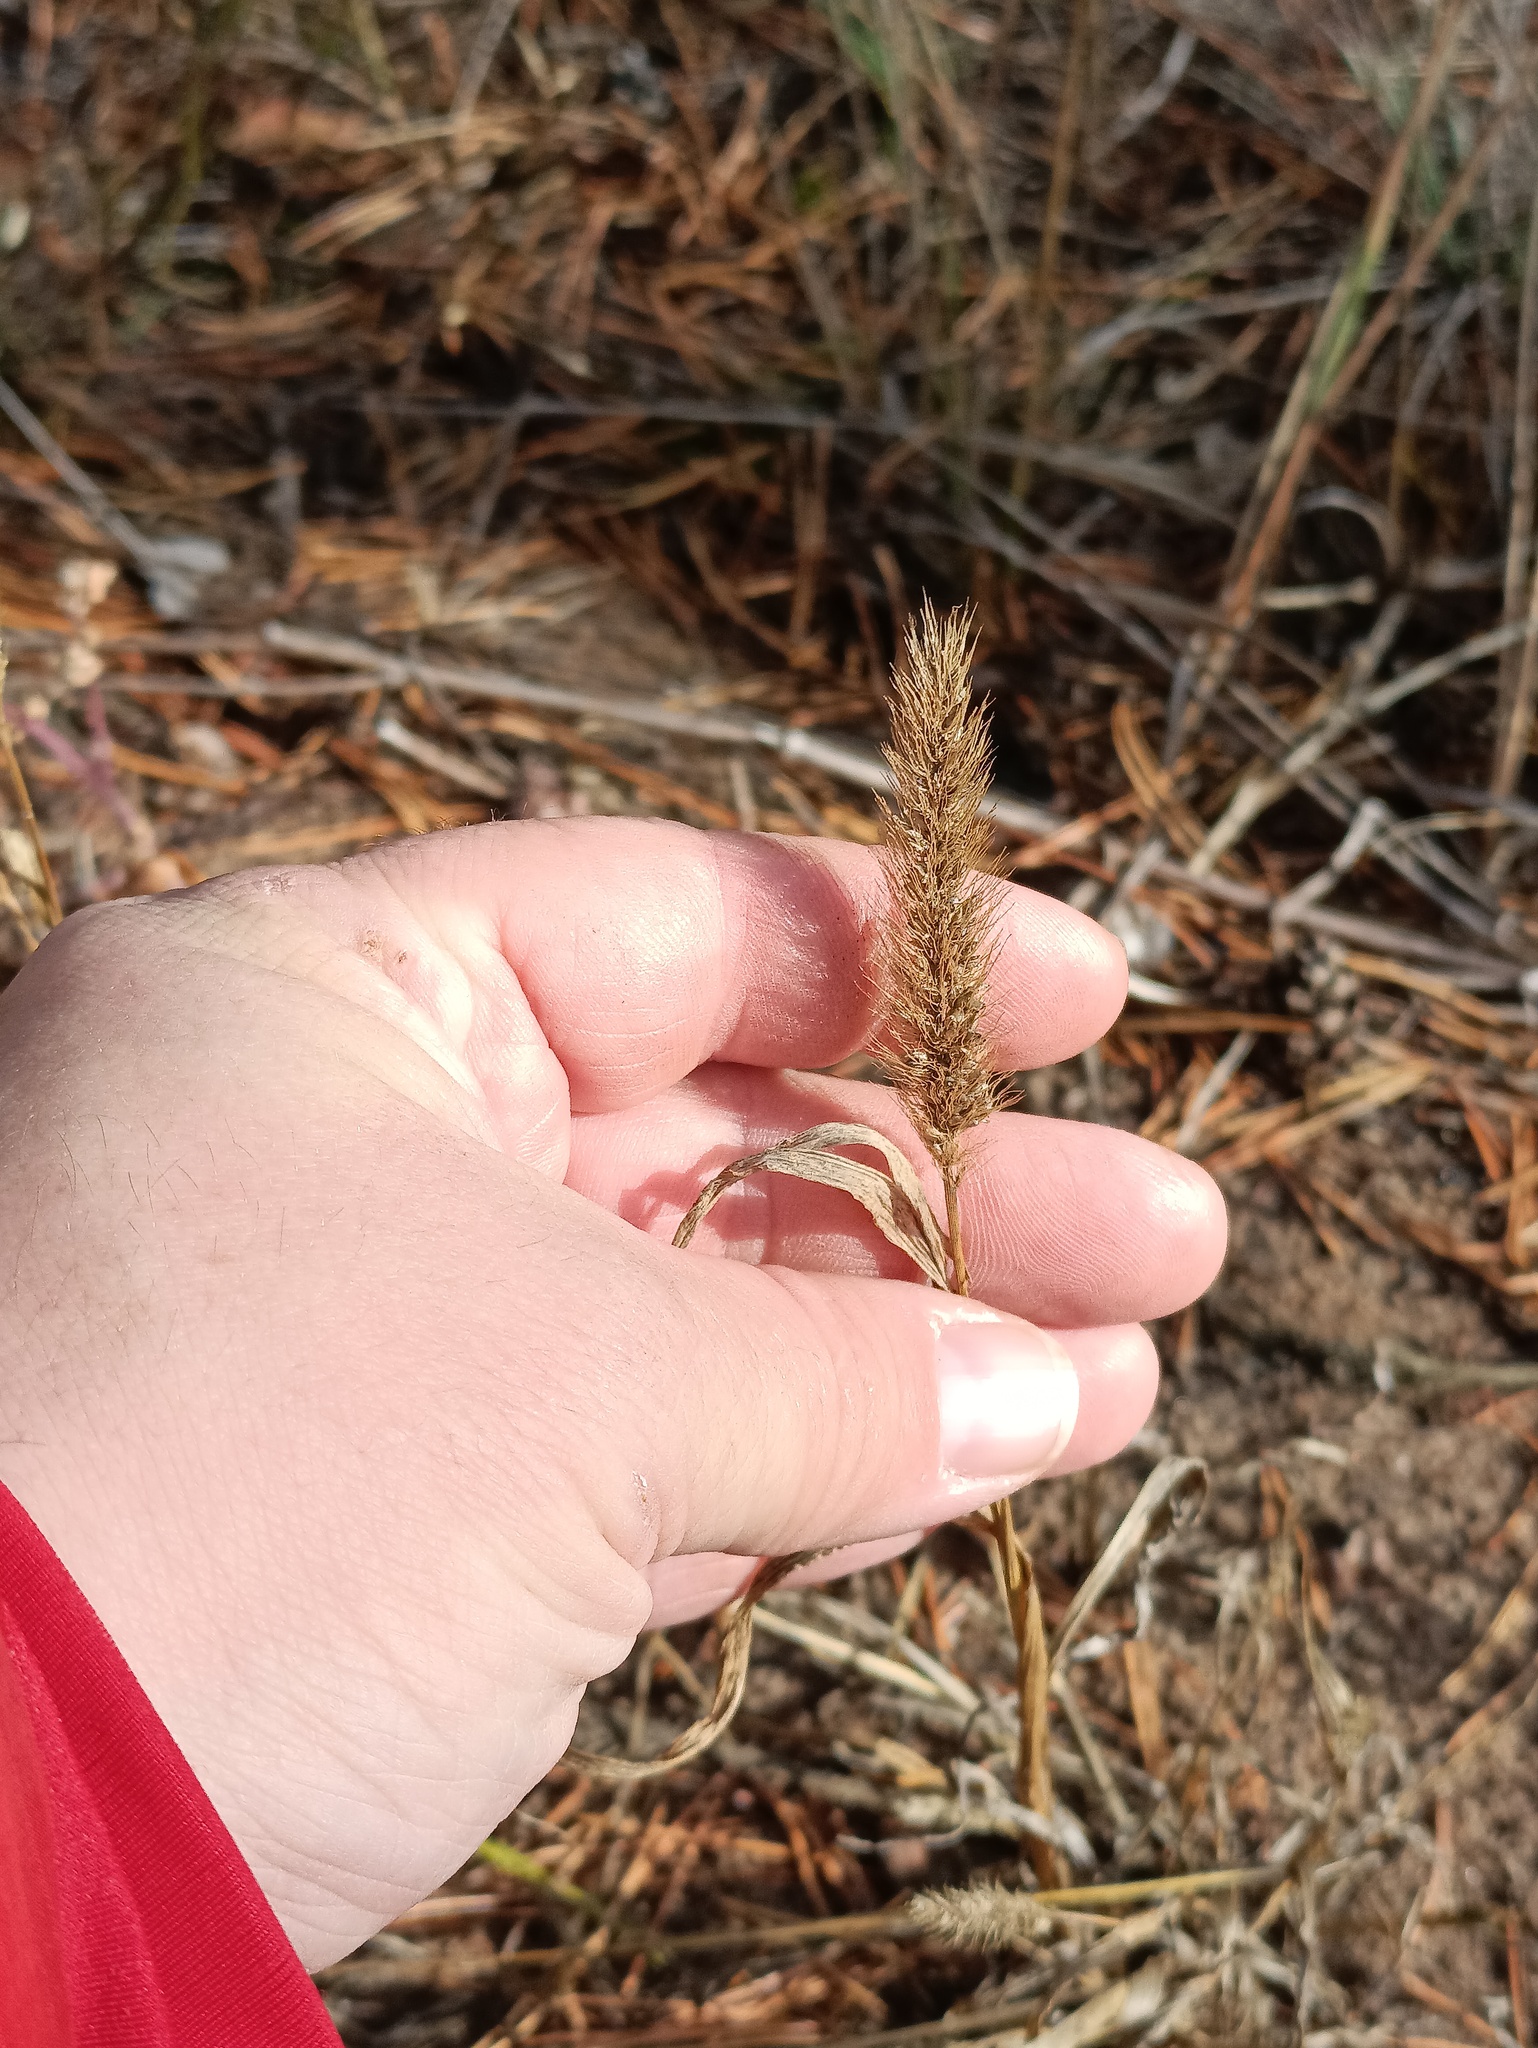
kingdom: Plantae
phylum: Tracheophyta
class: Liliopsida
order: Poales
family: Poaceae
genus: Setaria
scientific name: Setaria viridis
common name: Green bristlegrass
